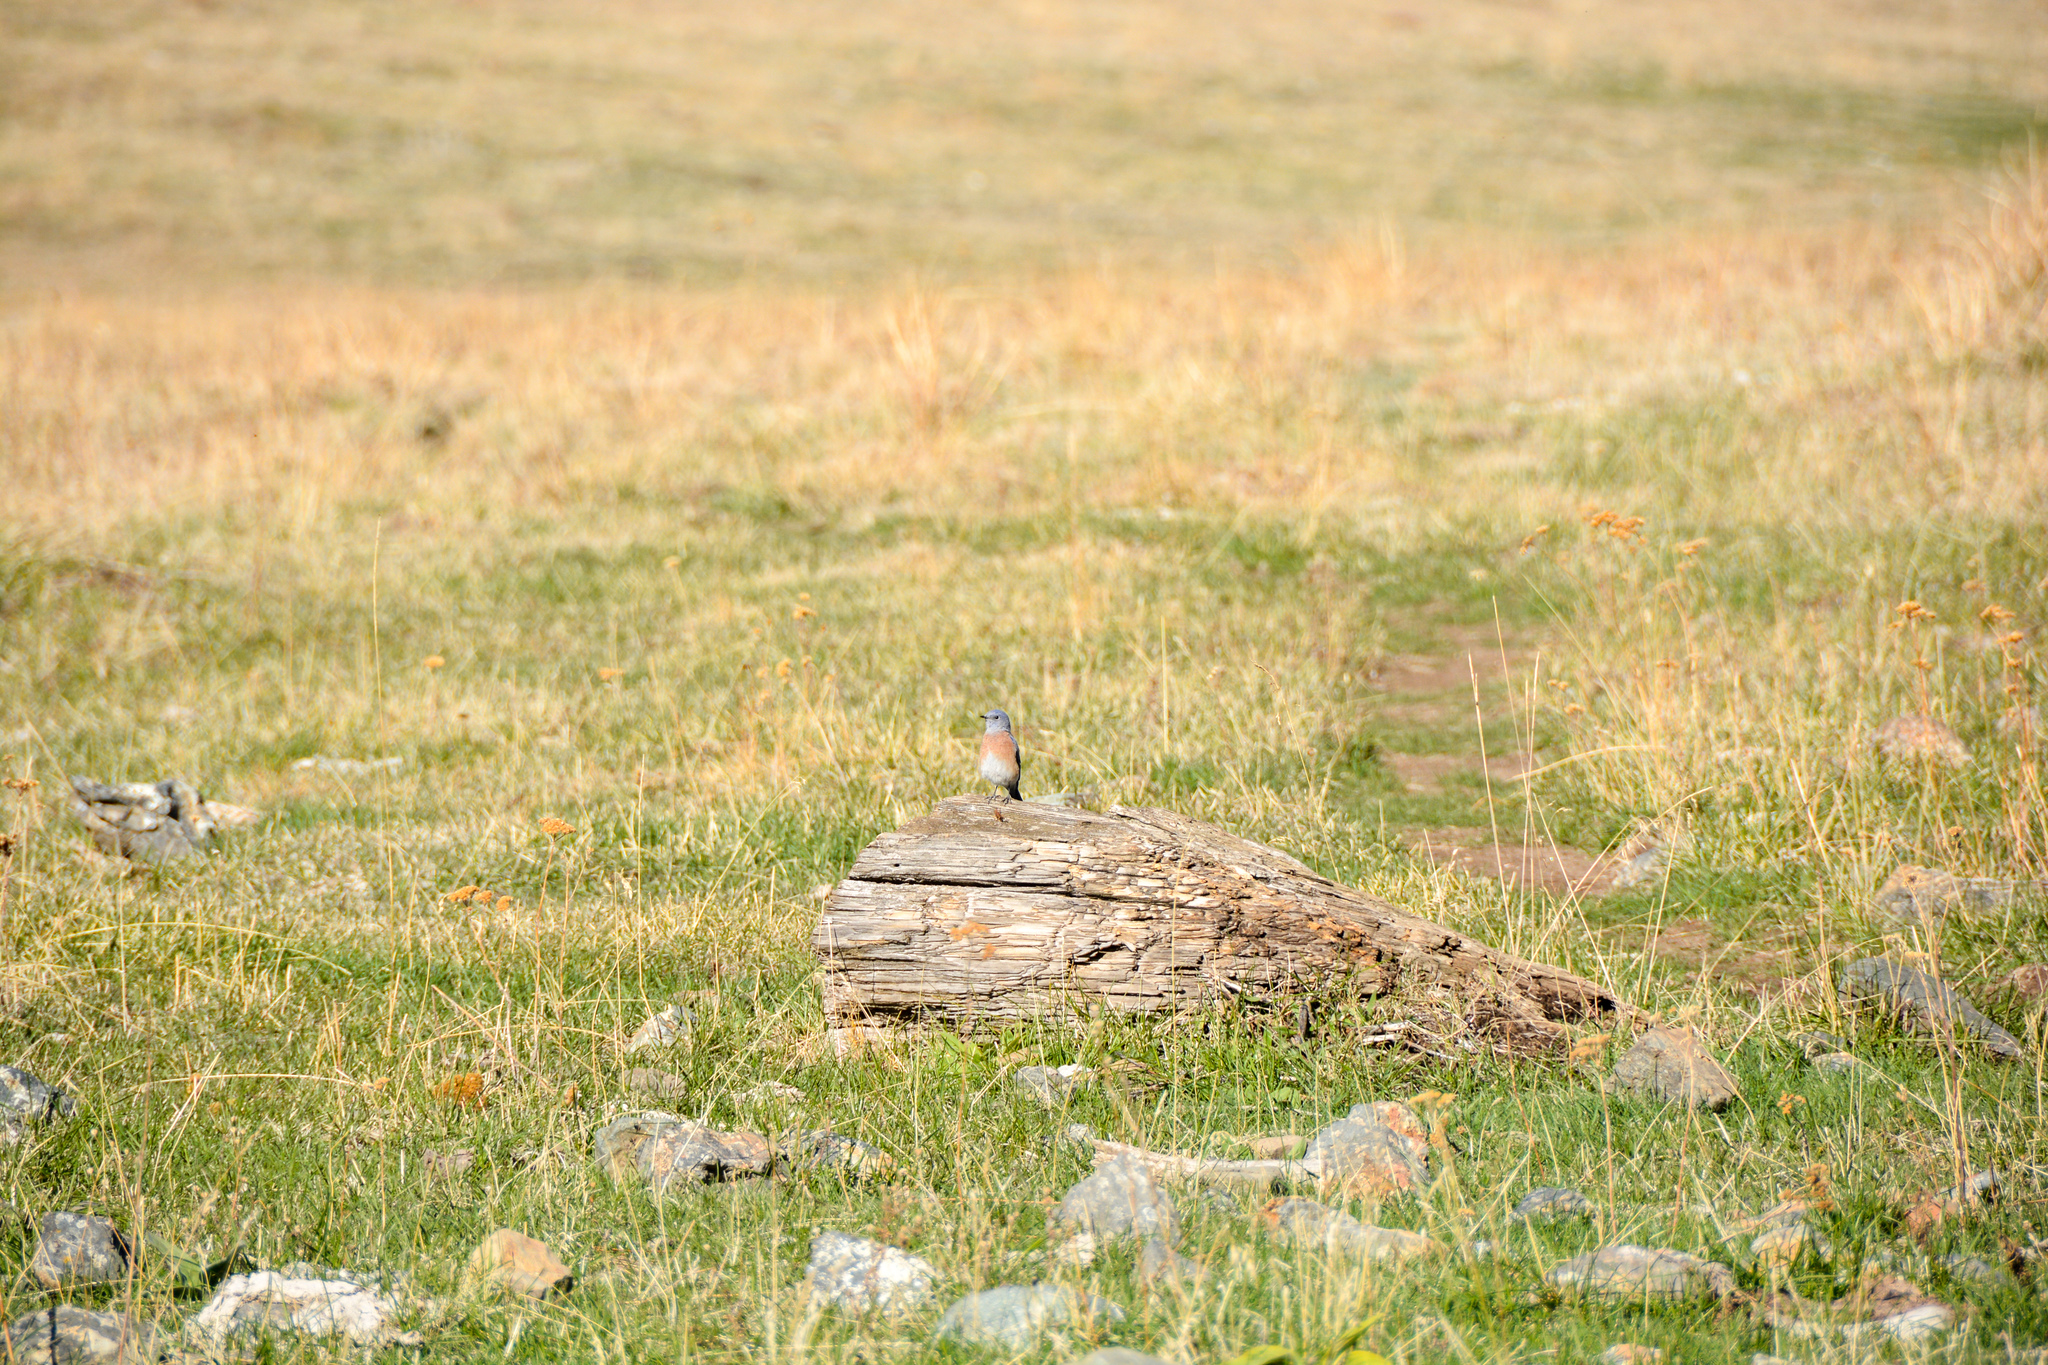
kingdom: Animalia
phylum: Chordata
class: Aves
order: Passeriformes
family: Turdidae
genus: Sialia
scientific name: Sialia mexicana
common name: Western bluebird
